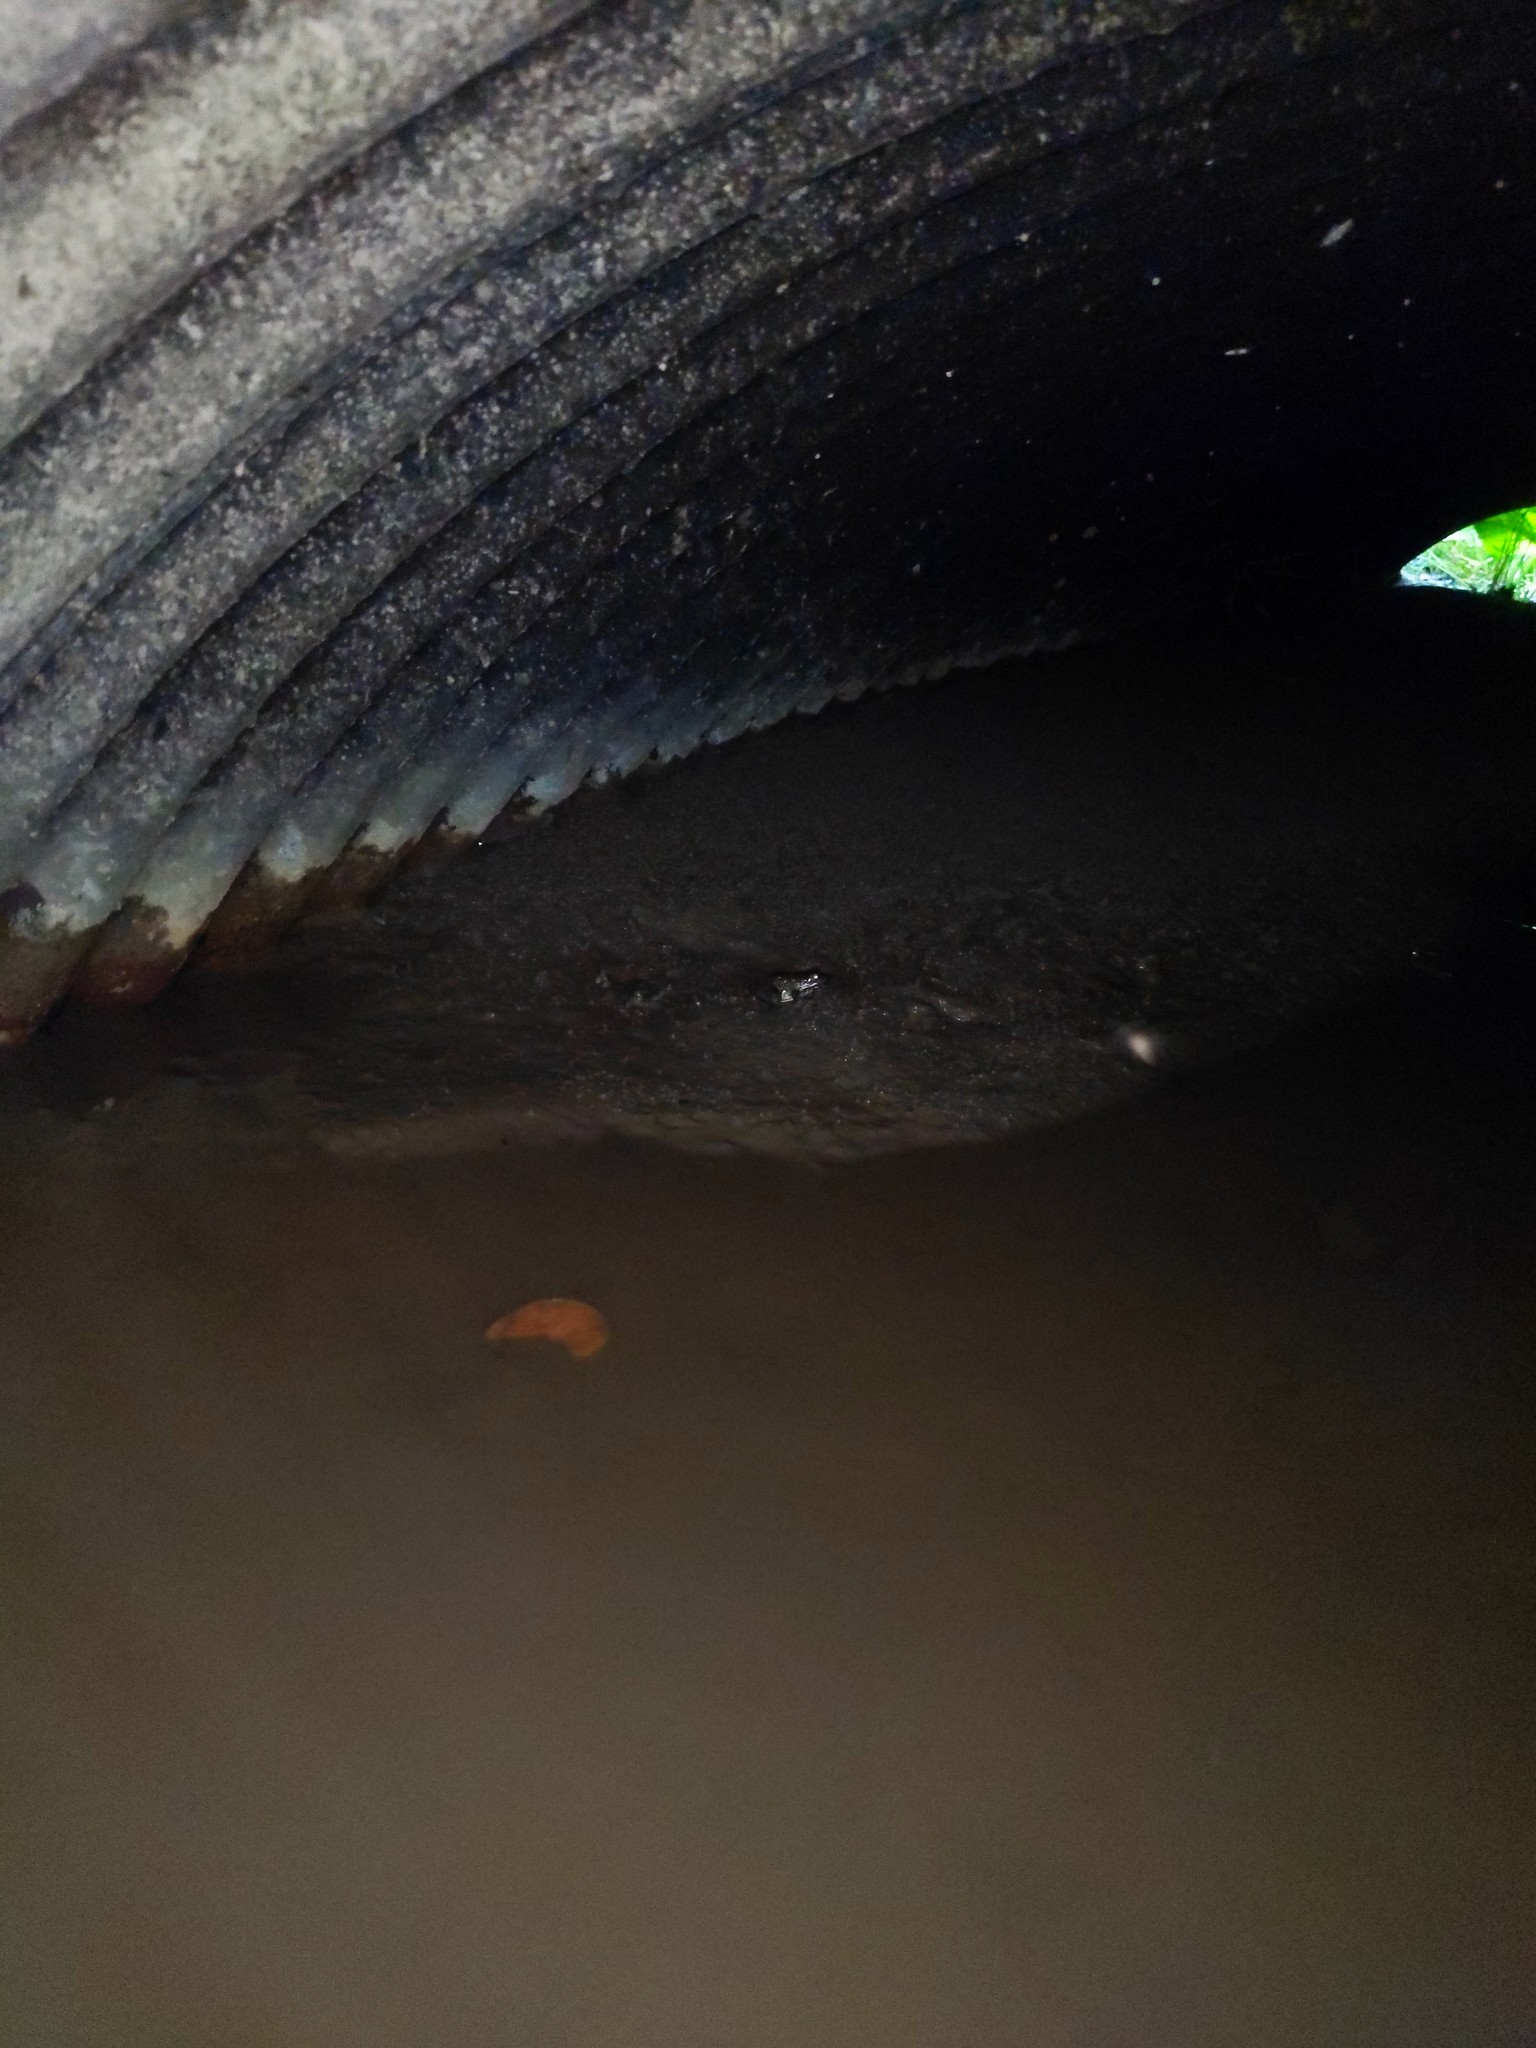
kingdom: Animalia
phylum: Chordata
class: Amphibia
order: Anura
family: Ranidae
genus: Lithobates
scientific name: Lithobates clamitans
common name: Green frog
